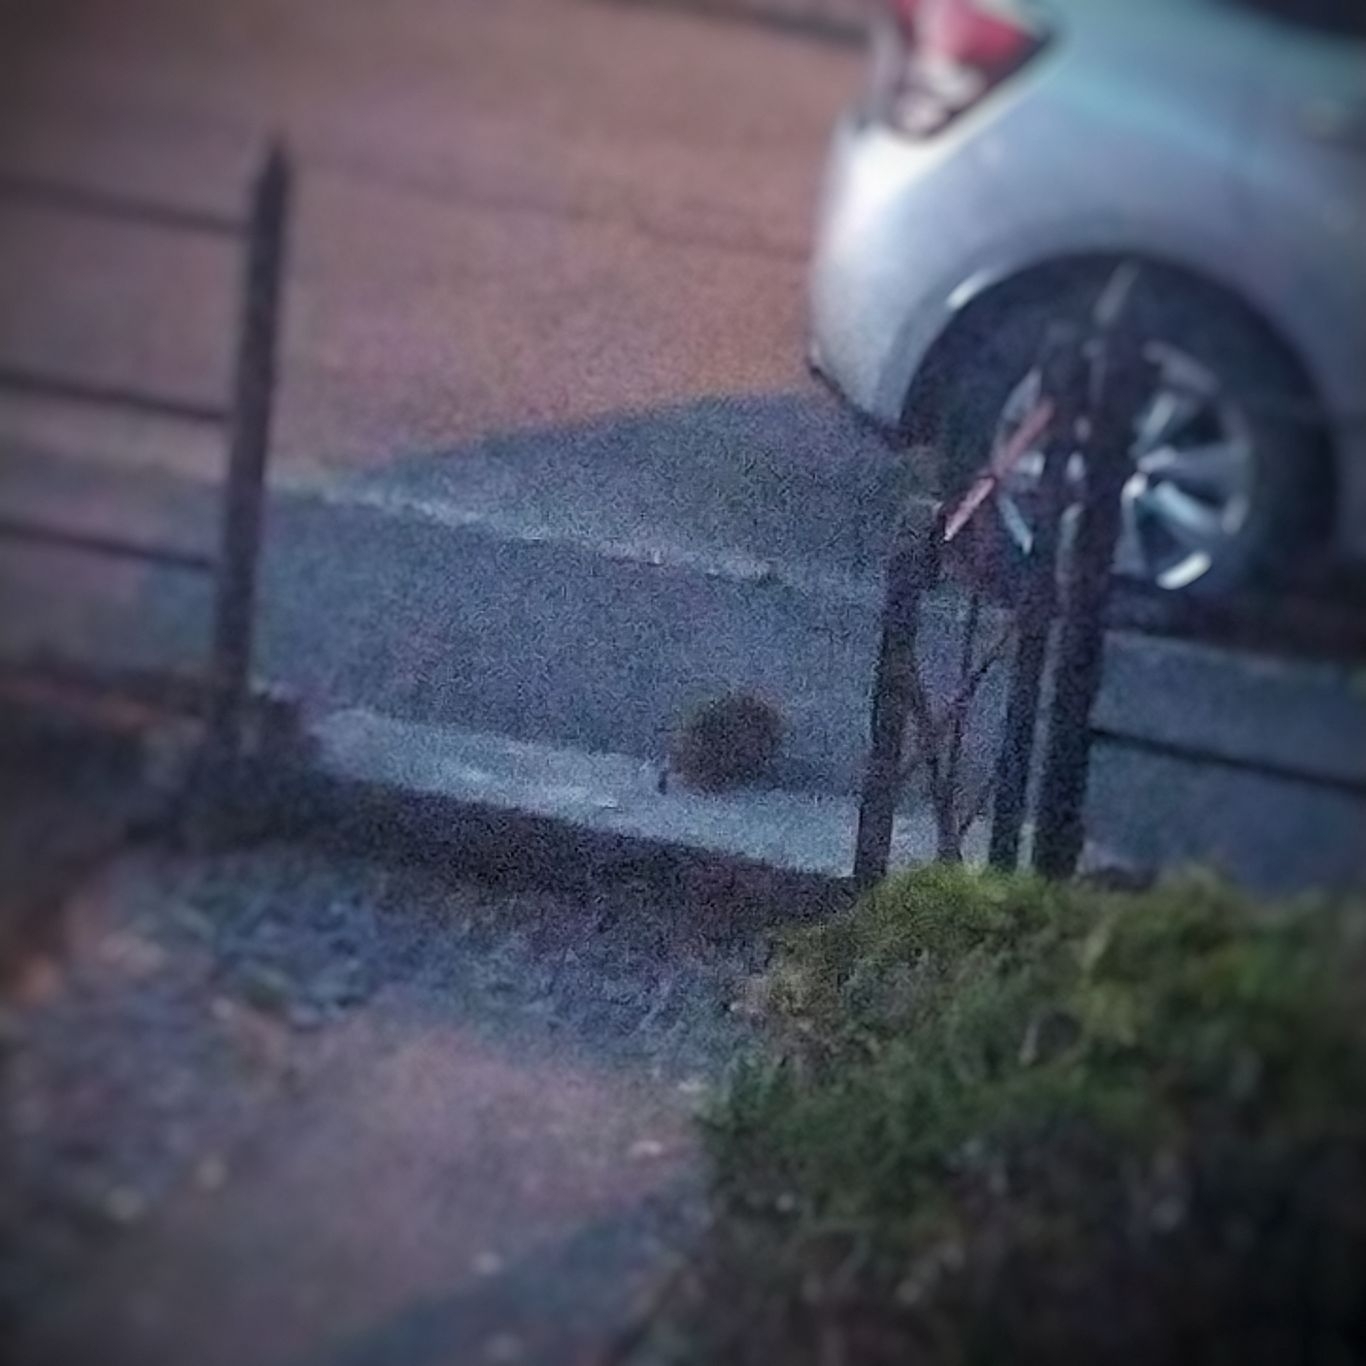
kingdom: Animalia
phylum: Chordata
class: Mammalia
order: Erinaceomorpha
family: Erinaceidae
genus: Erinaceus
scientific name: Erinaceus europaeus
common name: West european hedgehog
